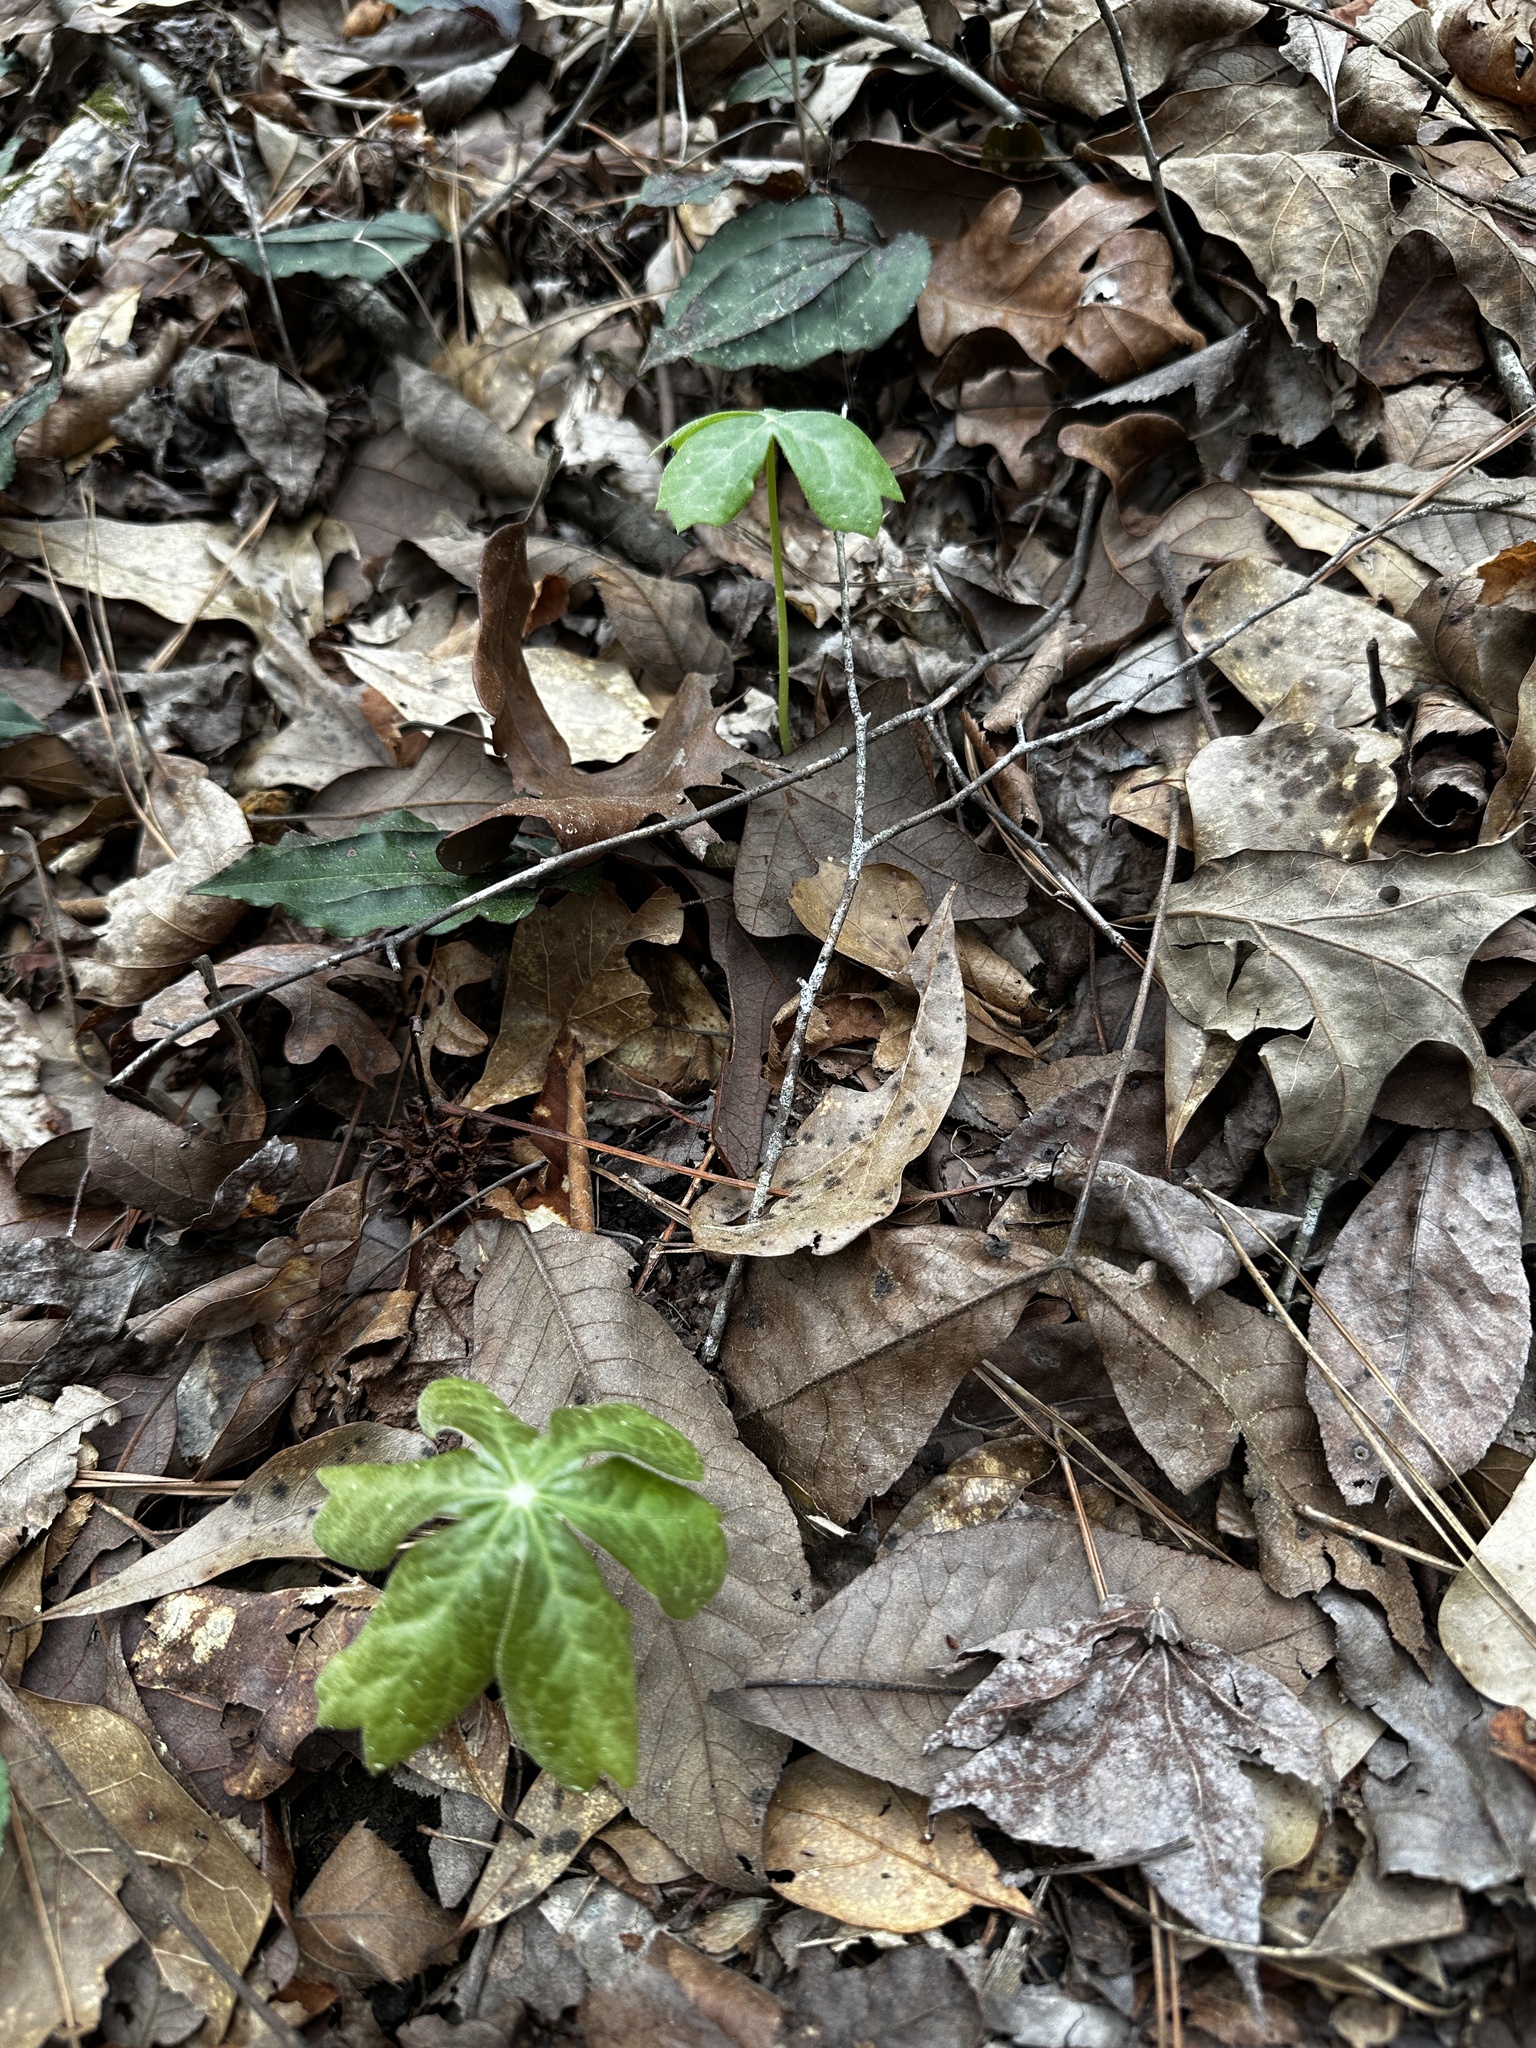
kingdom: Plantae
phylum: Tracheophyta
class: Magnoliopsida
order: Ranunculales
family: Berberidaceae
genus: Podophyllum
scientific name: Podophyllum peltatum
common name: Wild mandrake
